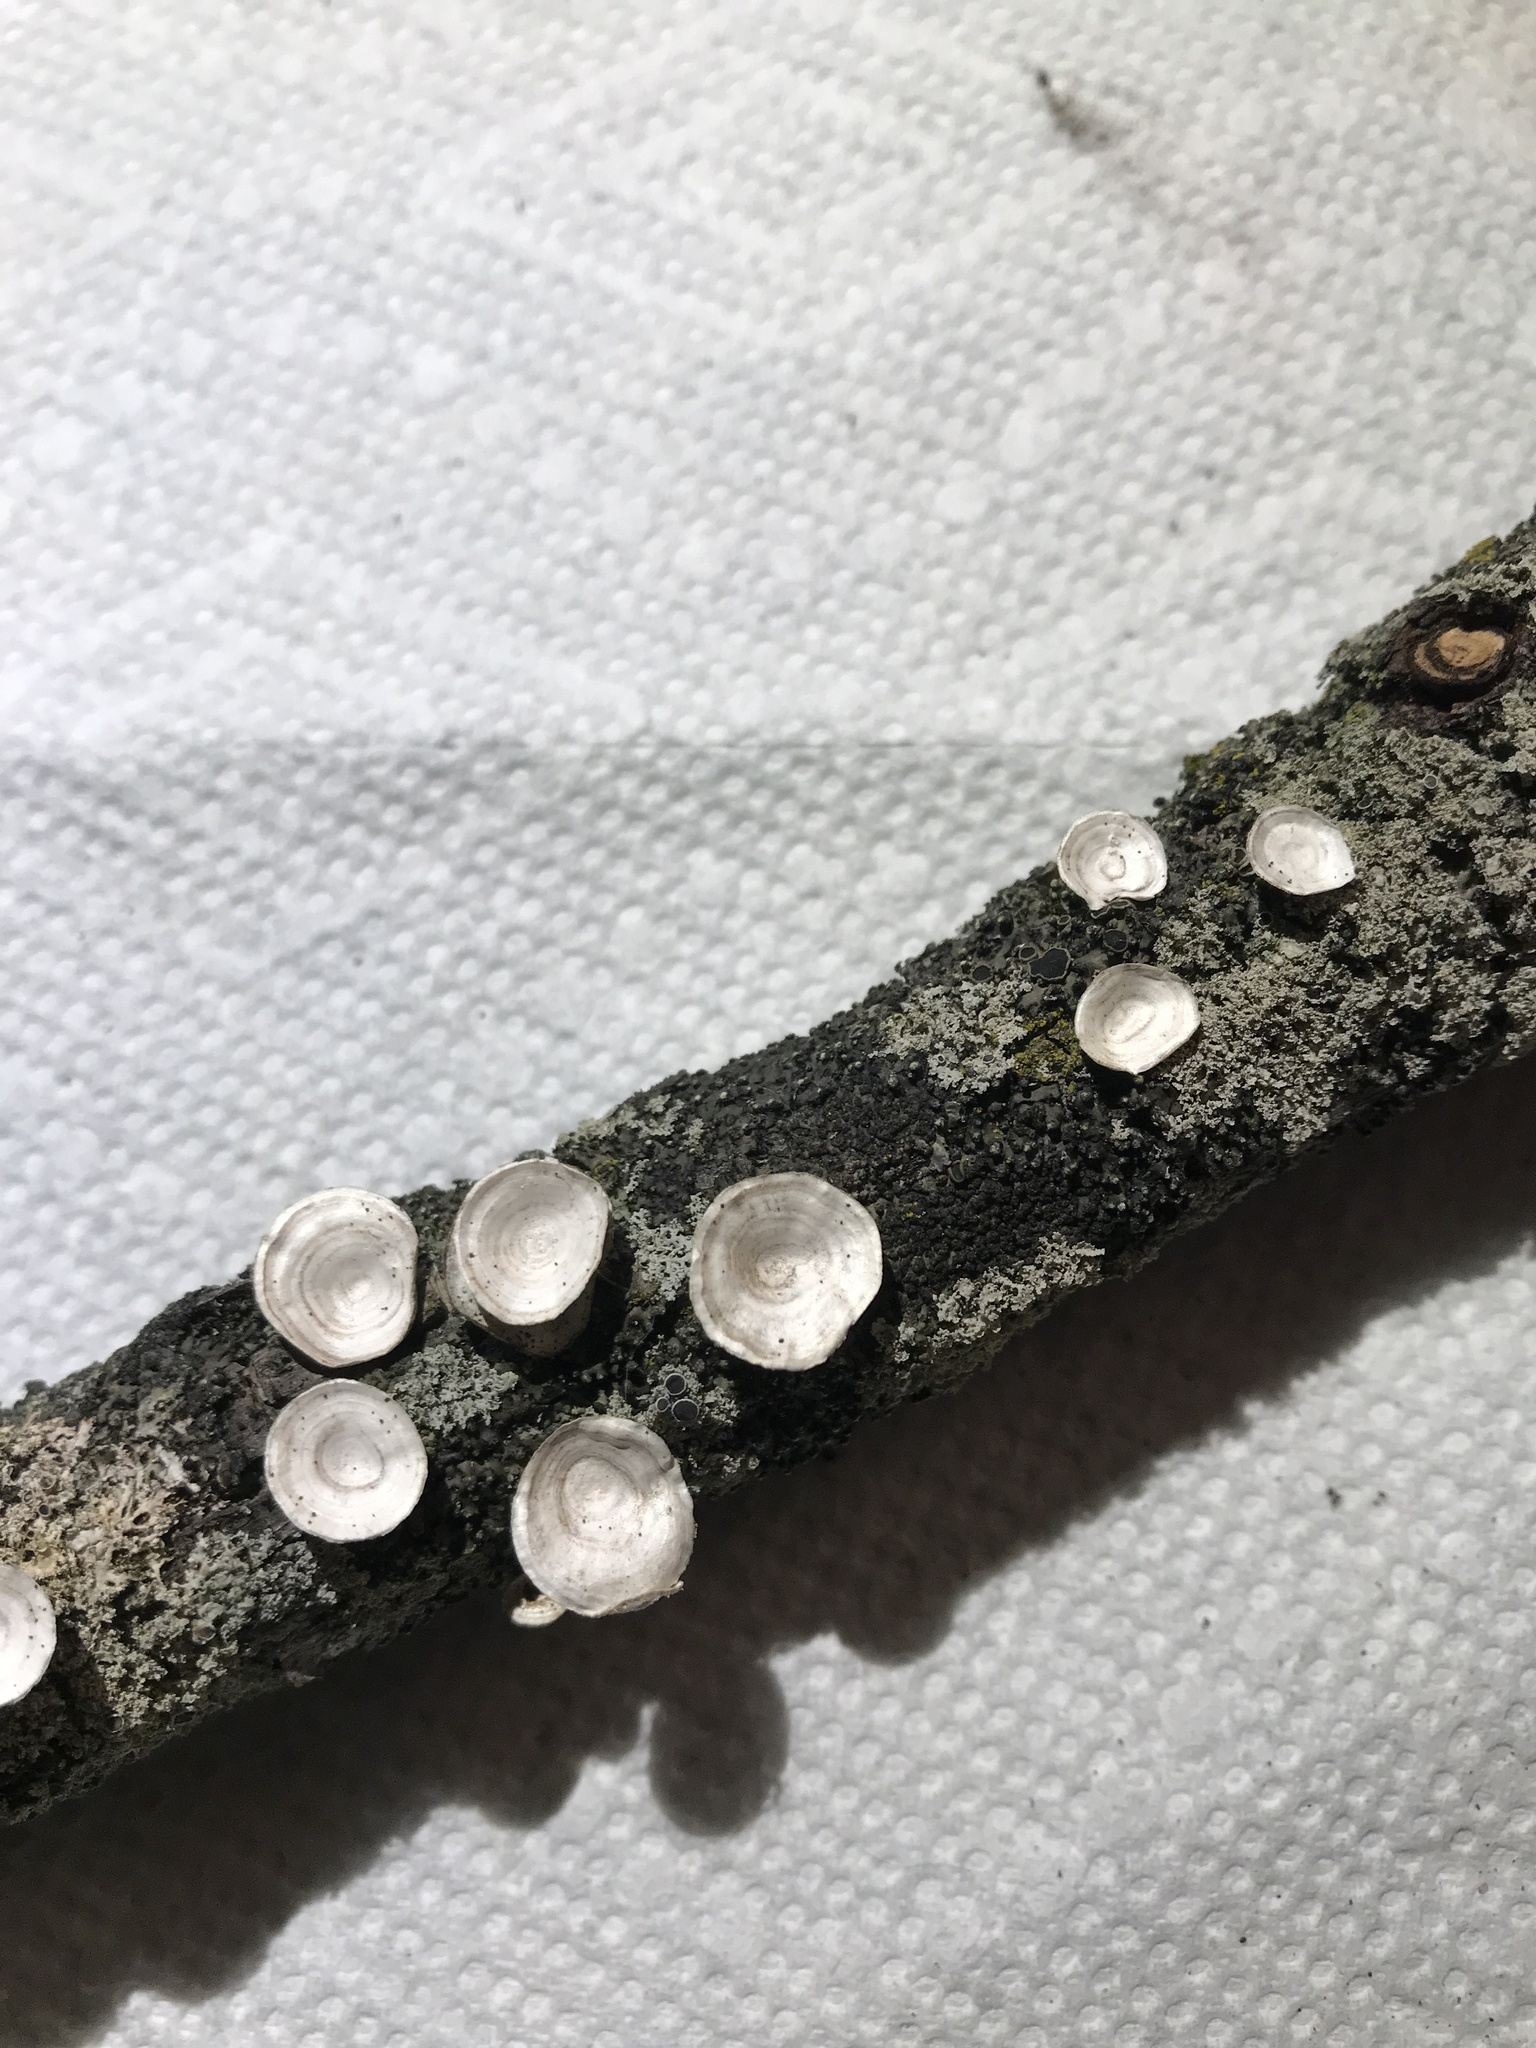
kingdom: Fungi
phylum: Basidiomycota
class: Agaricomycetes
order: Polyporales
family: Polyporaceae
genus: Poronidulus
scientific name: Poronidulus conchifer
